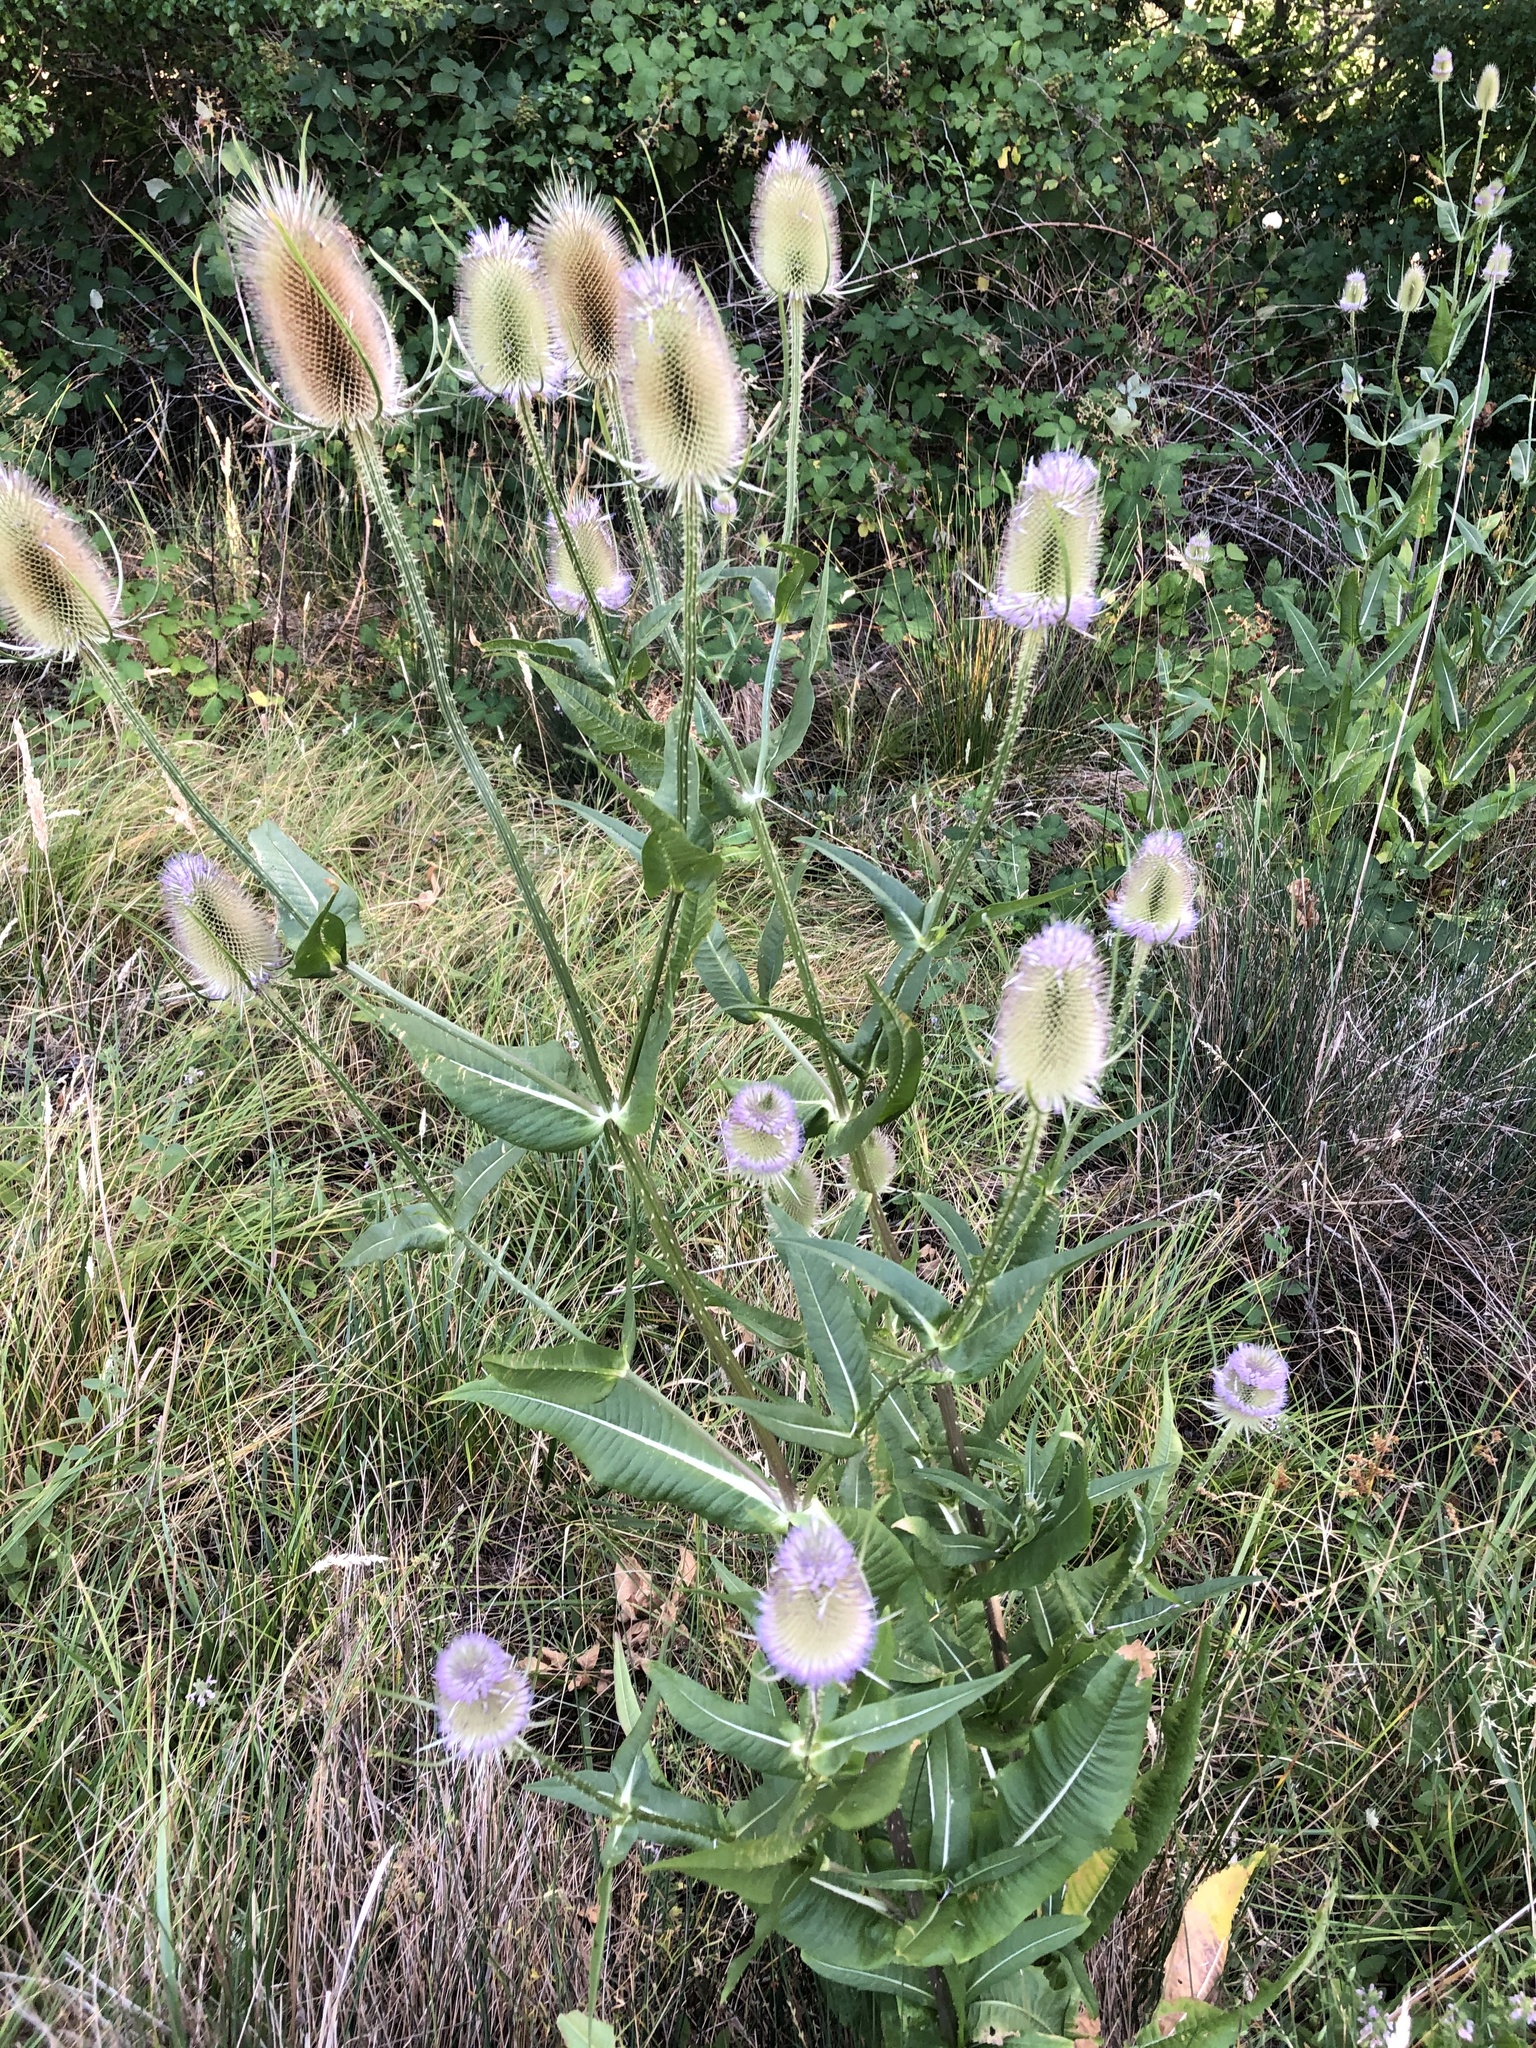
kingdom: Plantae
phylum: Tracheophyta
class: Magnoliopsida
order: Dipsacales
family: Caprifoliaceae
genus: Dipsacus
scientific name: Dipsacus fullonum
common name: Teasel
